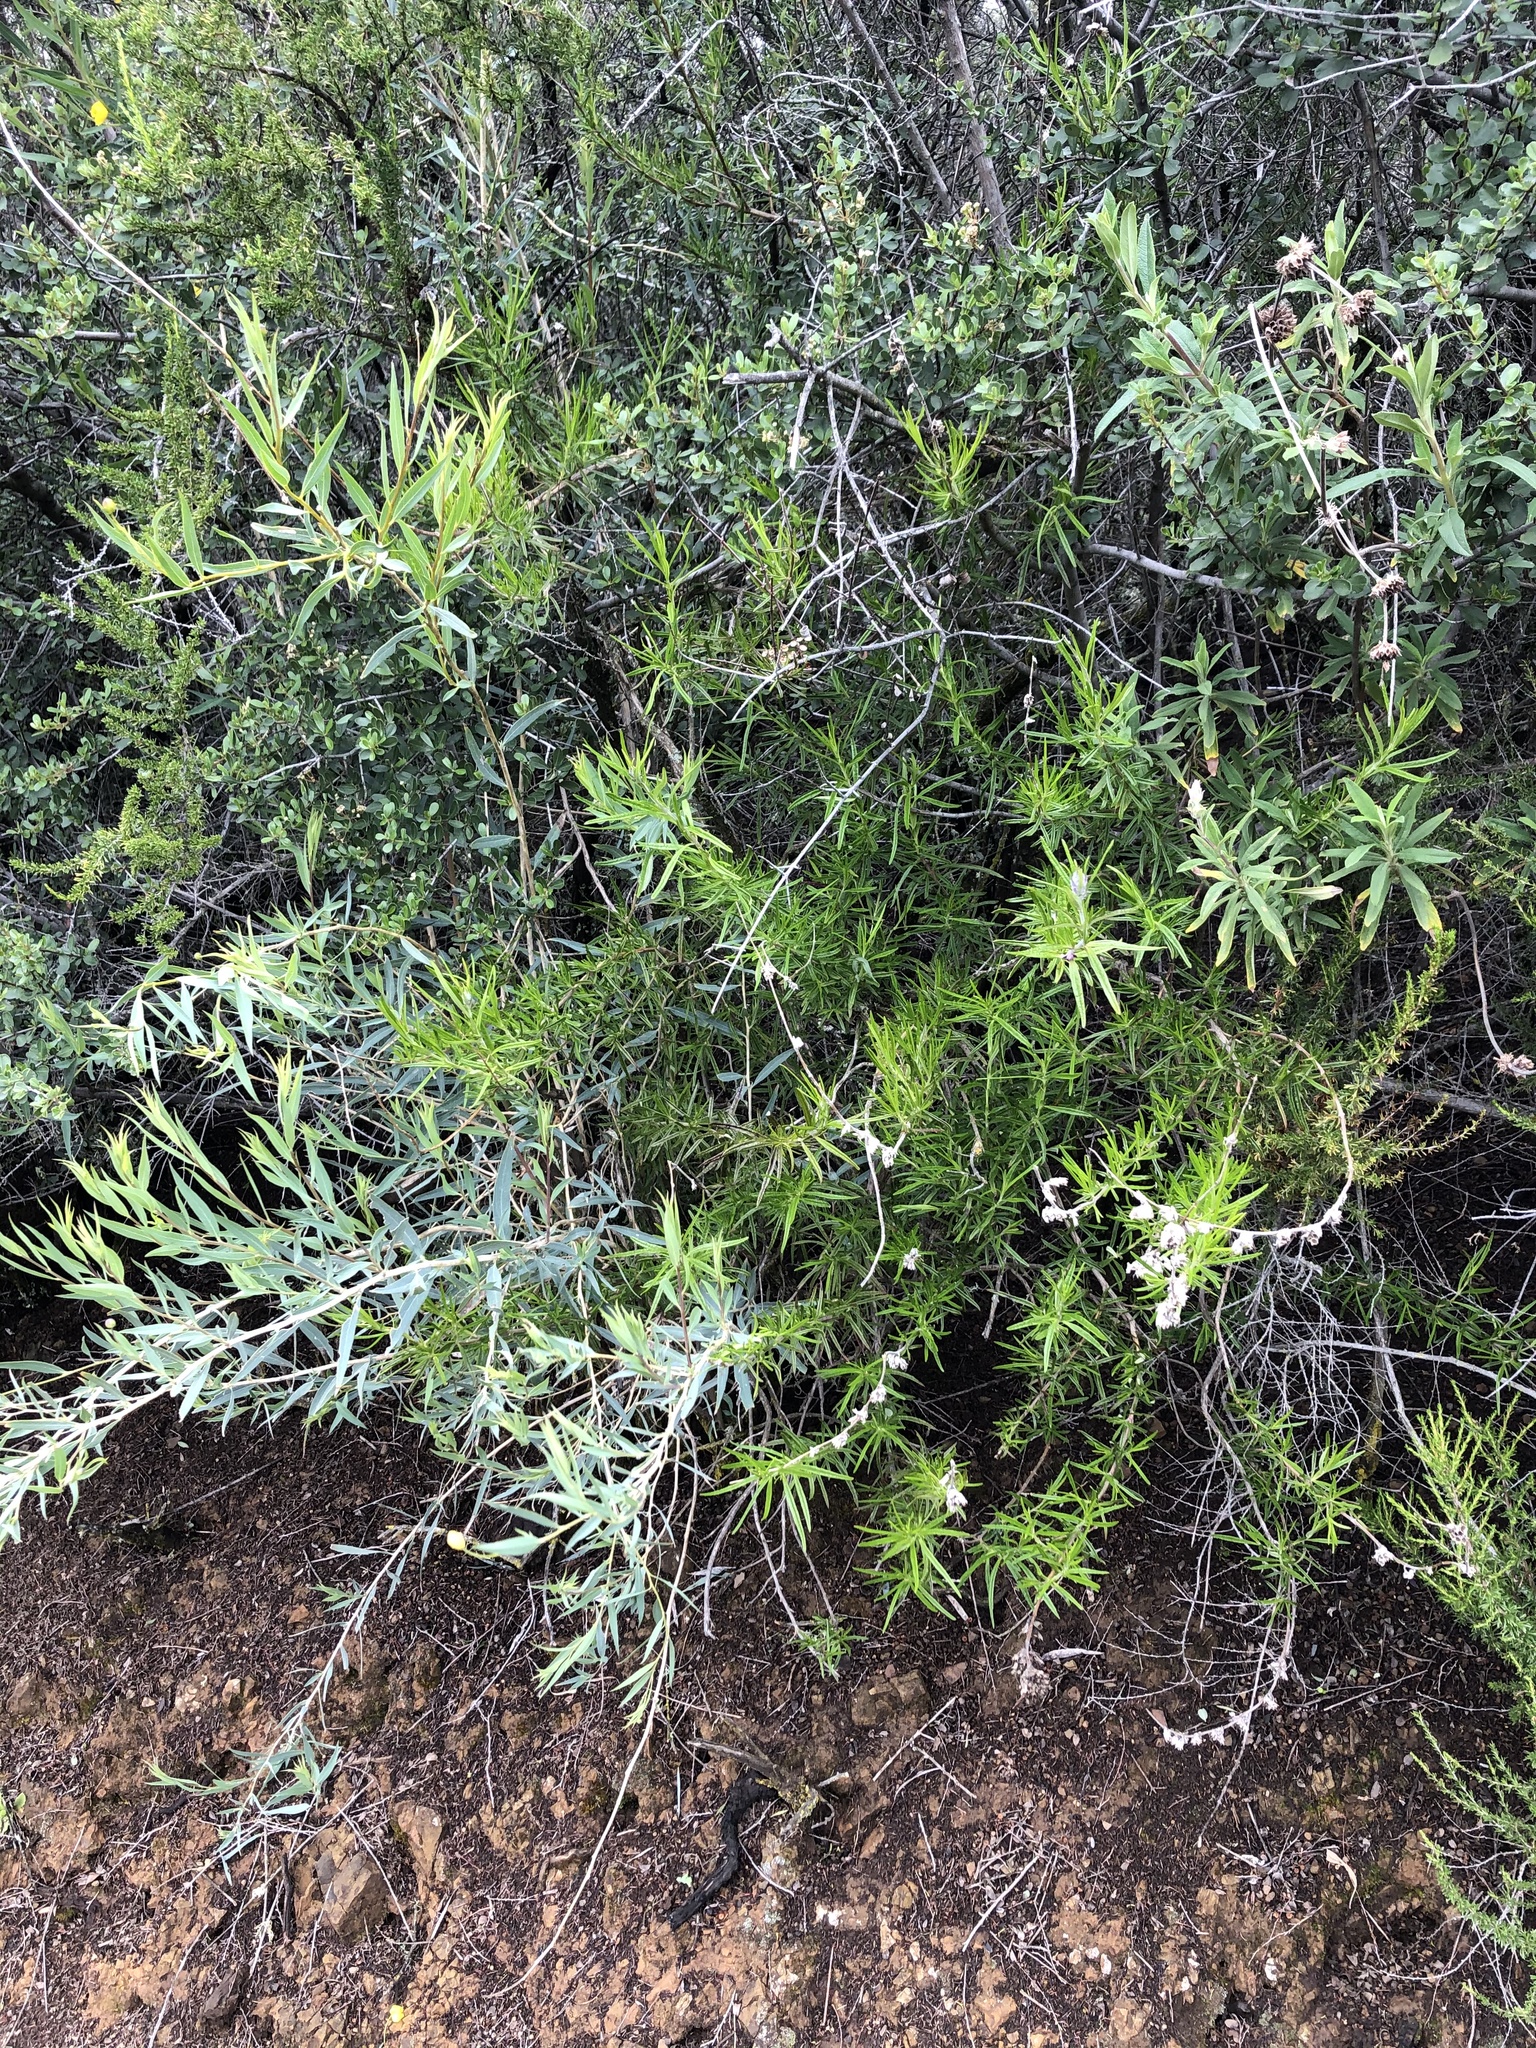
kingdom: Plantae
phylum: Tracheophyta
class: Magnoliopsida
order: Lamiales
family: Lamiaceae
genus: Trichostema
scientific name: Trichostema lanatum
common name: Woolly bluecurls
